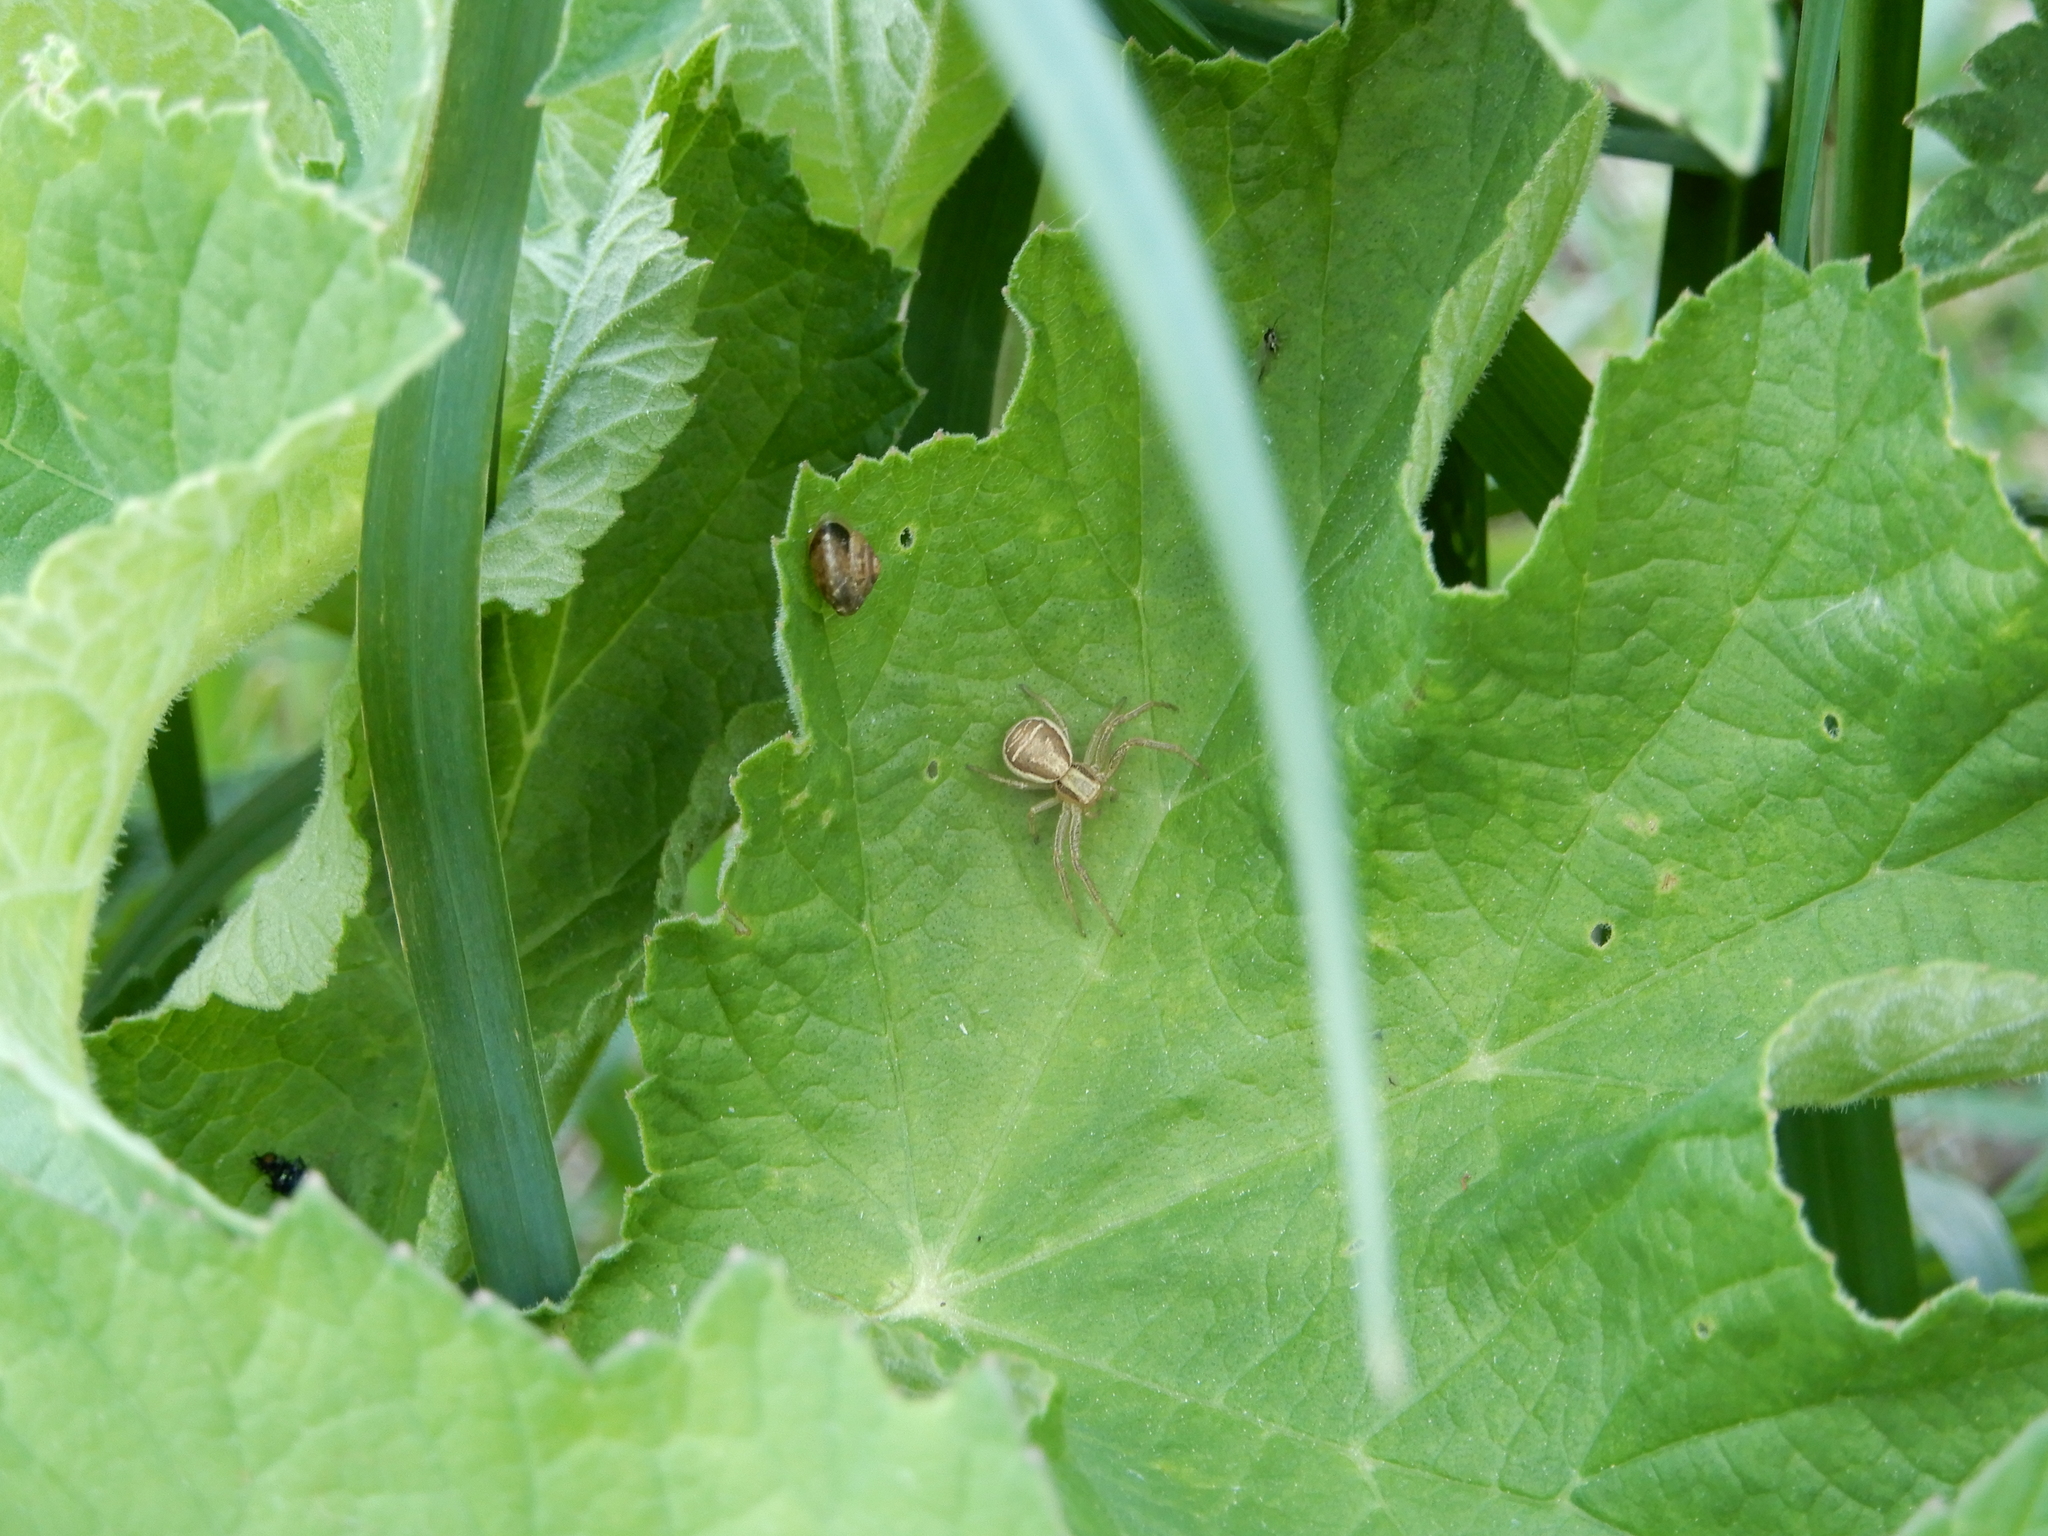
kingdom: Animalia
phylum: Arthropoda
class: Arachnida
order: Araneae
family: Thomisidae
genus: Xysticus
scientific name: Xysticus ulmi
